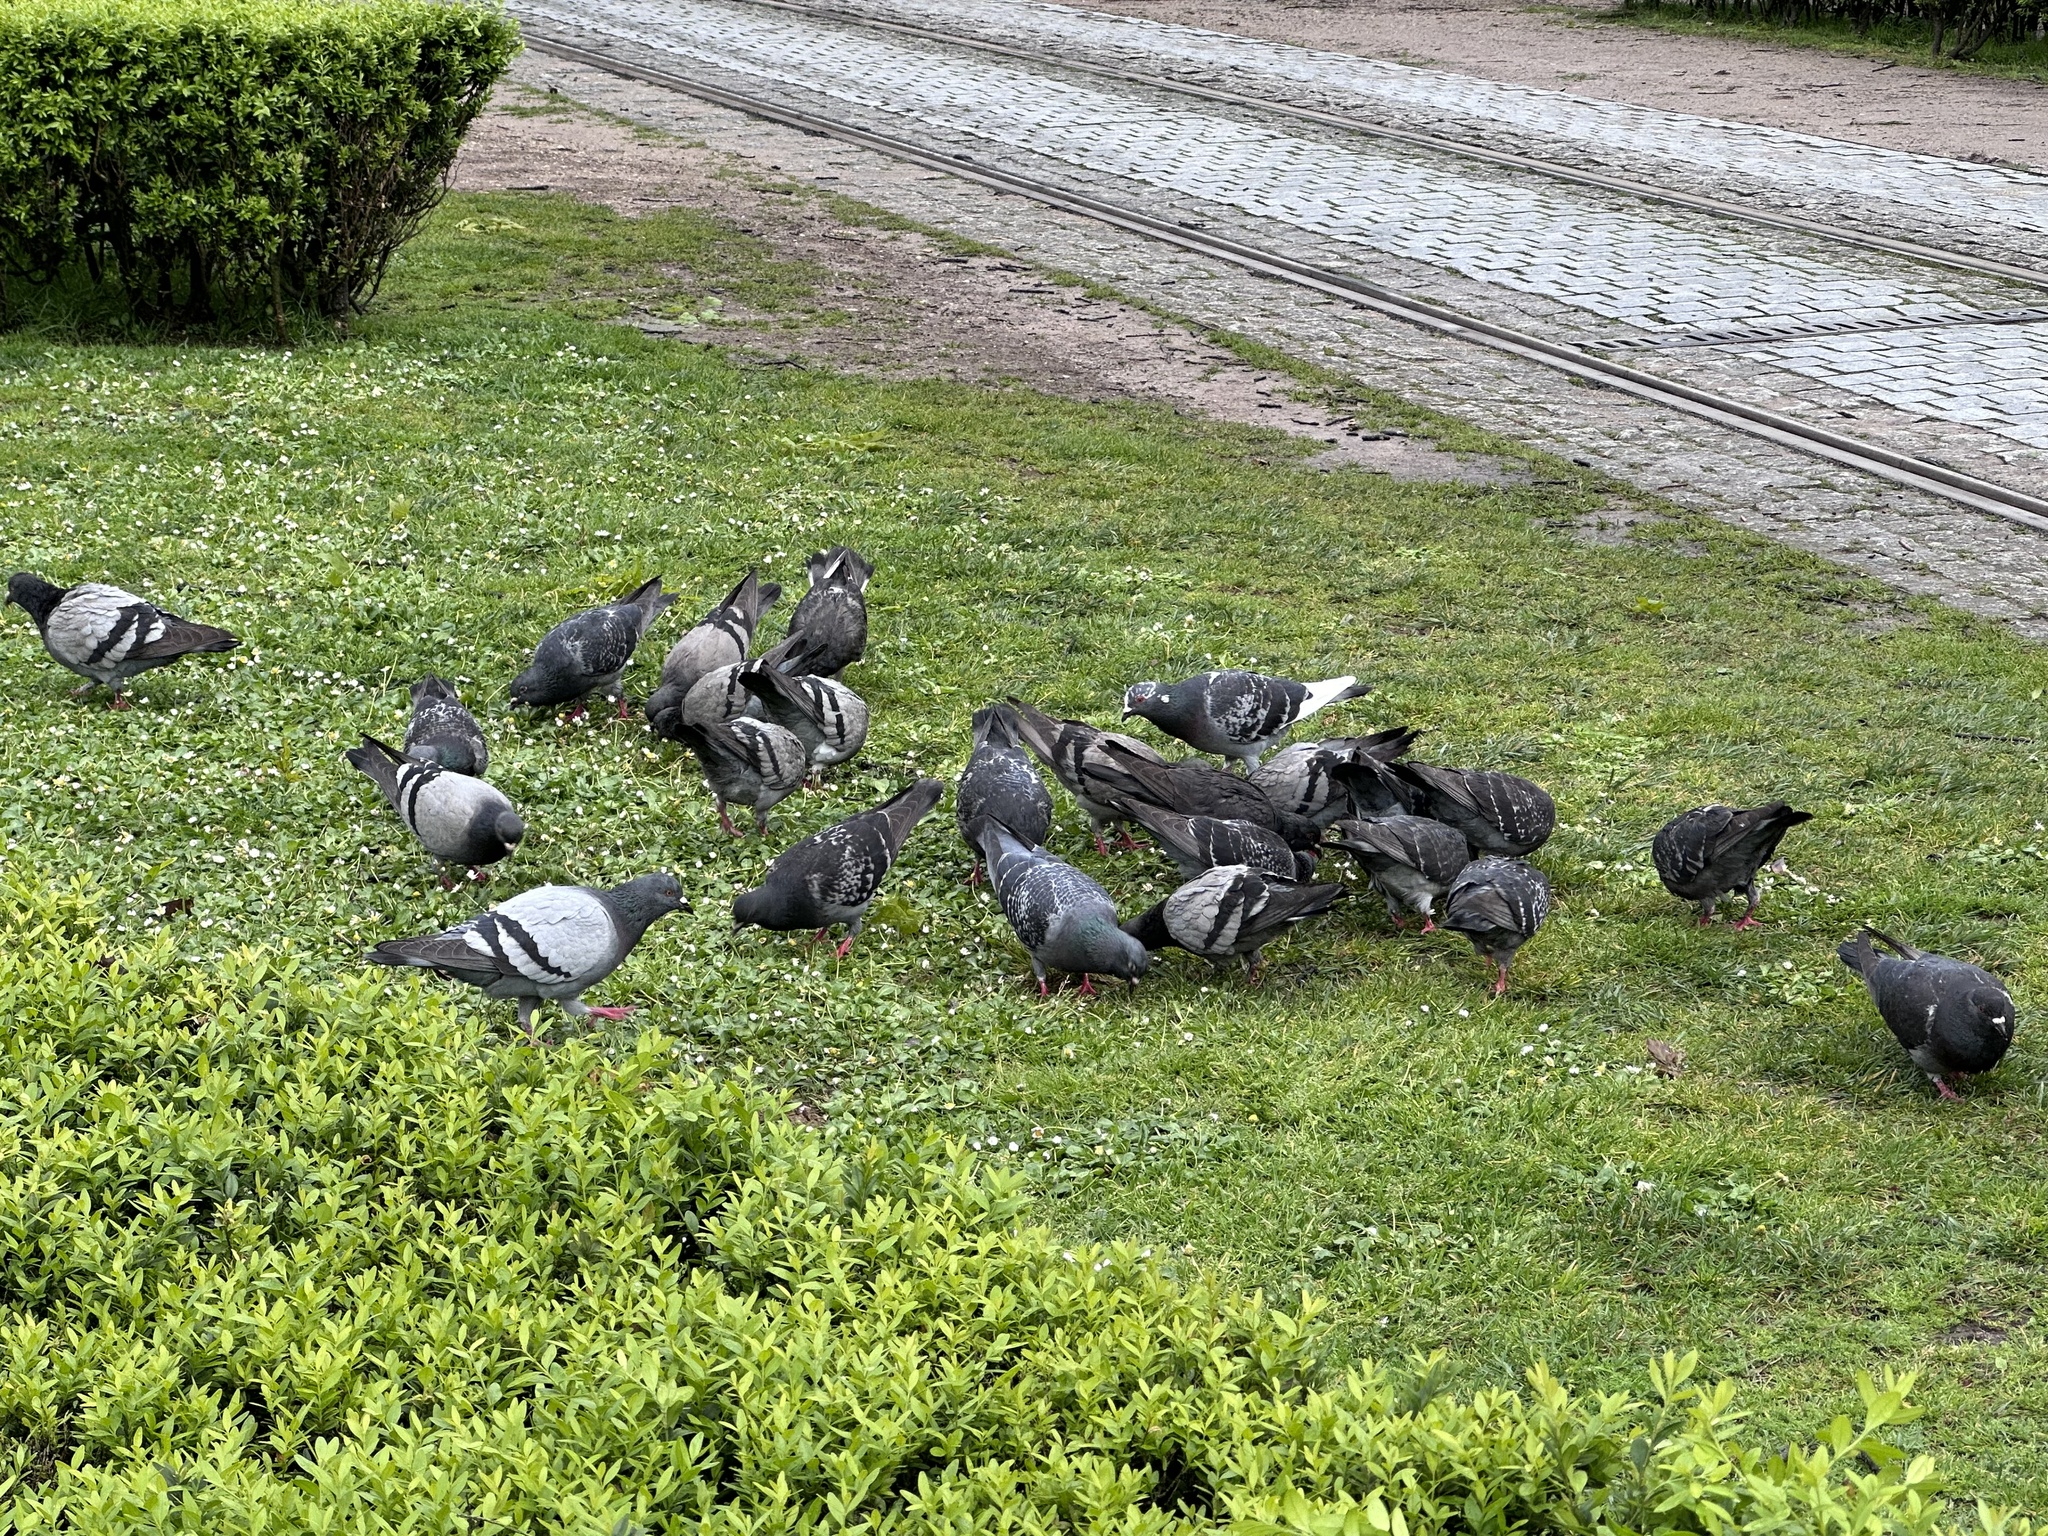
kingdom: Animalia
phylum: Chordata
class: Aves
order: Columbiformes
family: Columbidae
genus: Columba
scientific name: Columba livia
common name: Rock pigeon
